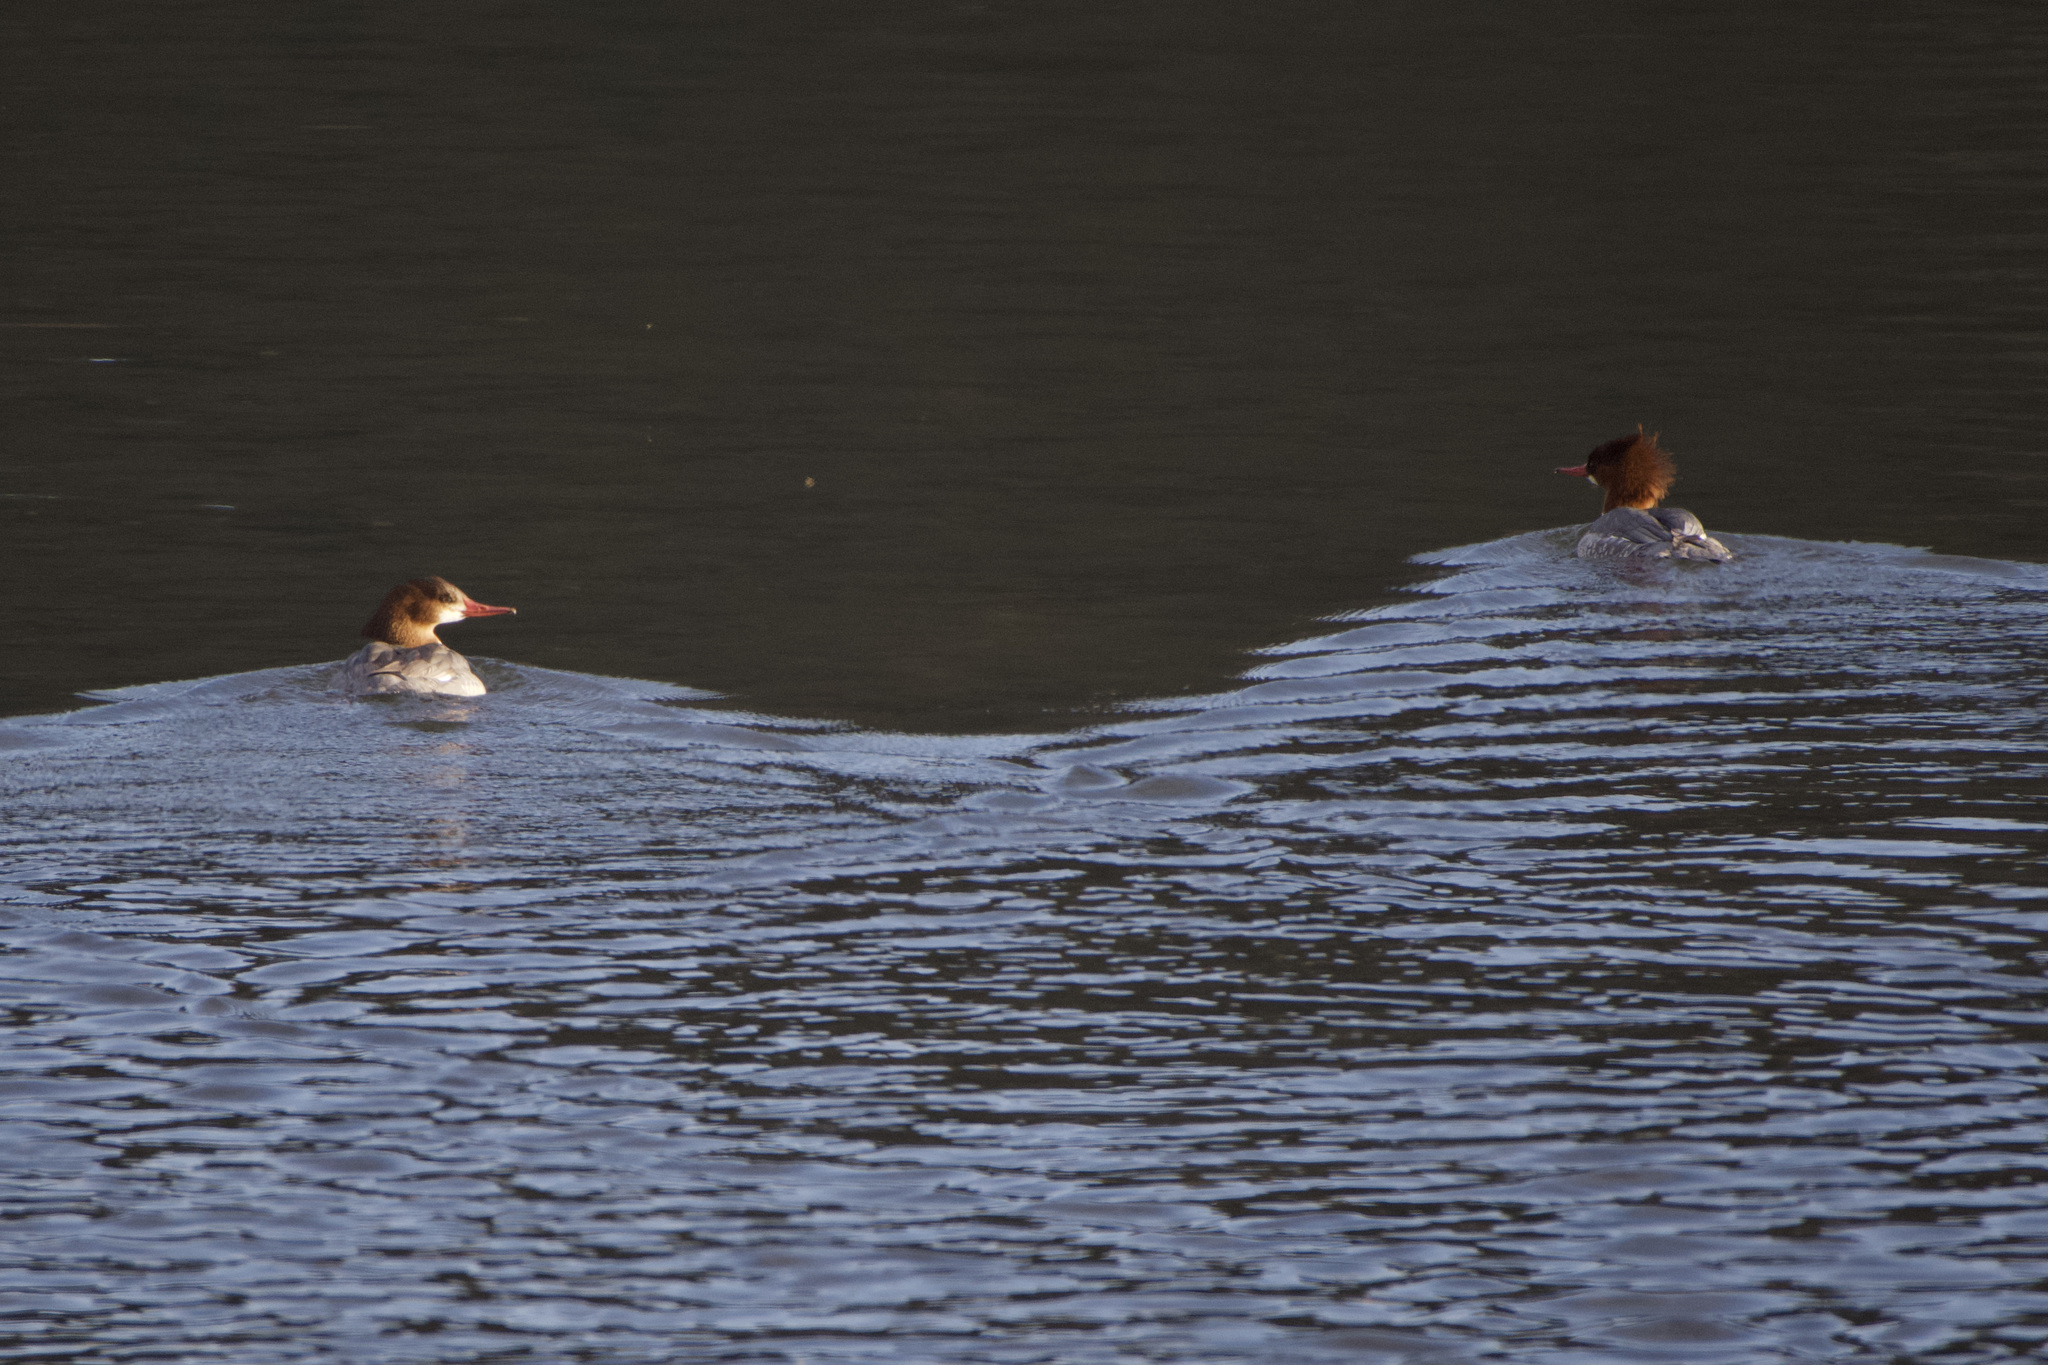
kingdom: Animalia
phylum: Chordata
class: Aves
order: Anseriformes
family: Anatidae
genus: Mergus
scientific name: Mergus merganser
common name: Common merganser
